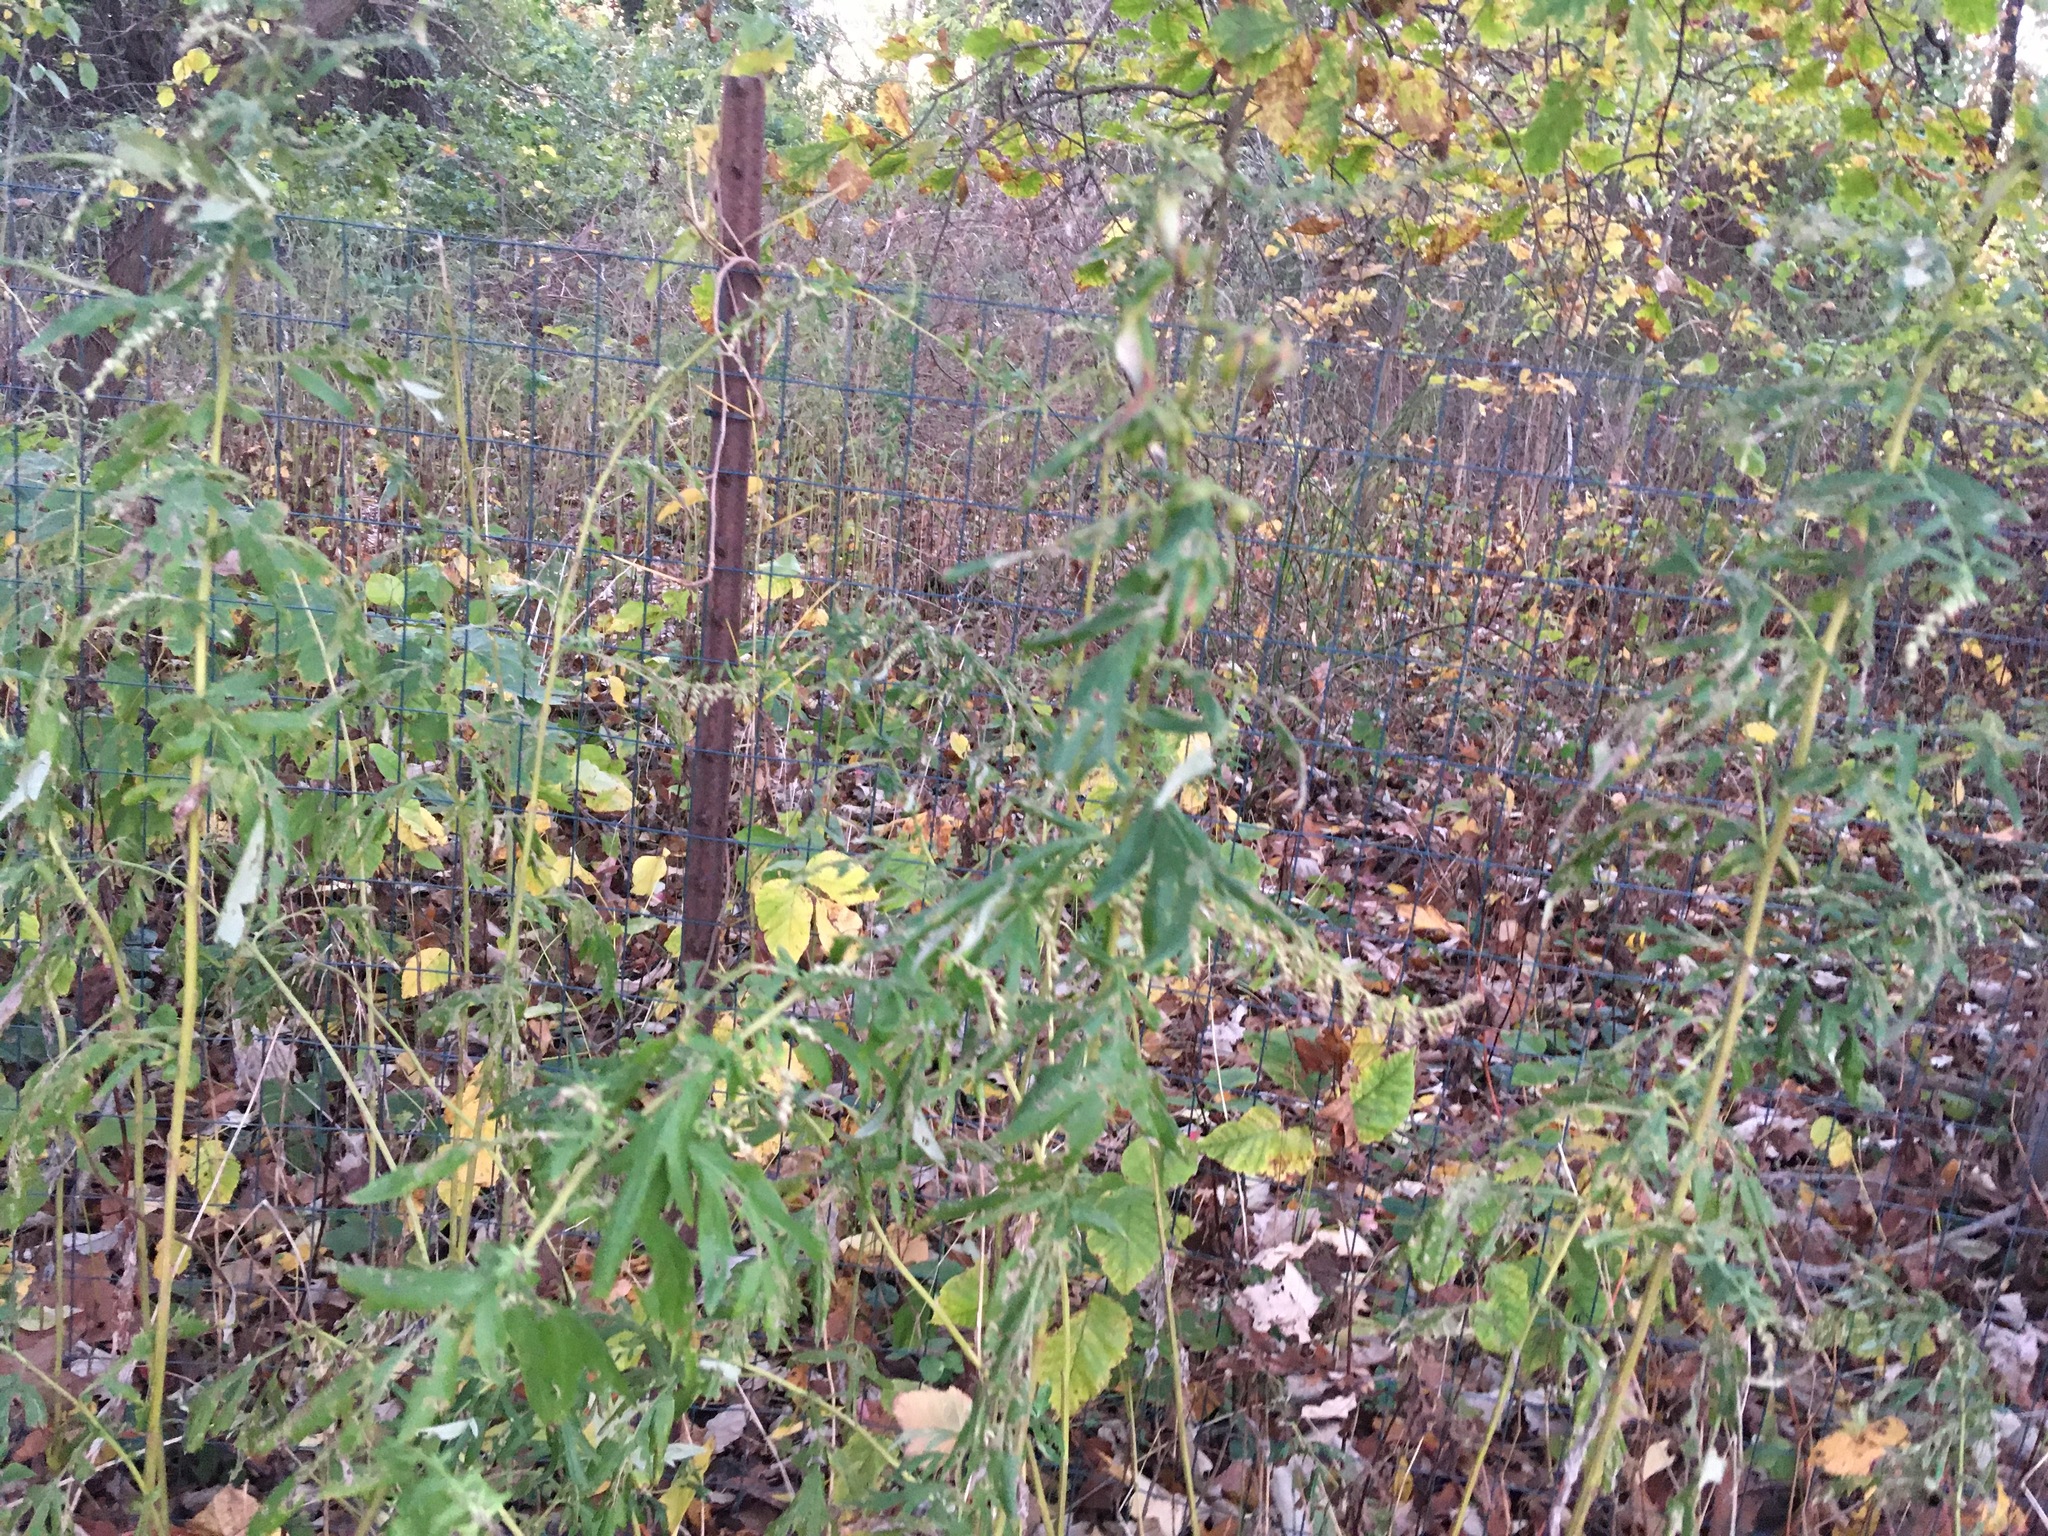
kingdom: Plantae
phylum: Tracheophyta
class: Magnoliopsida
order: Asterales
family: Asteraceae
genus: Artemisia
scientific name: Artemisia vulgaris
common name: Mugwort
